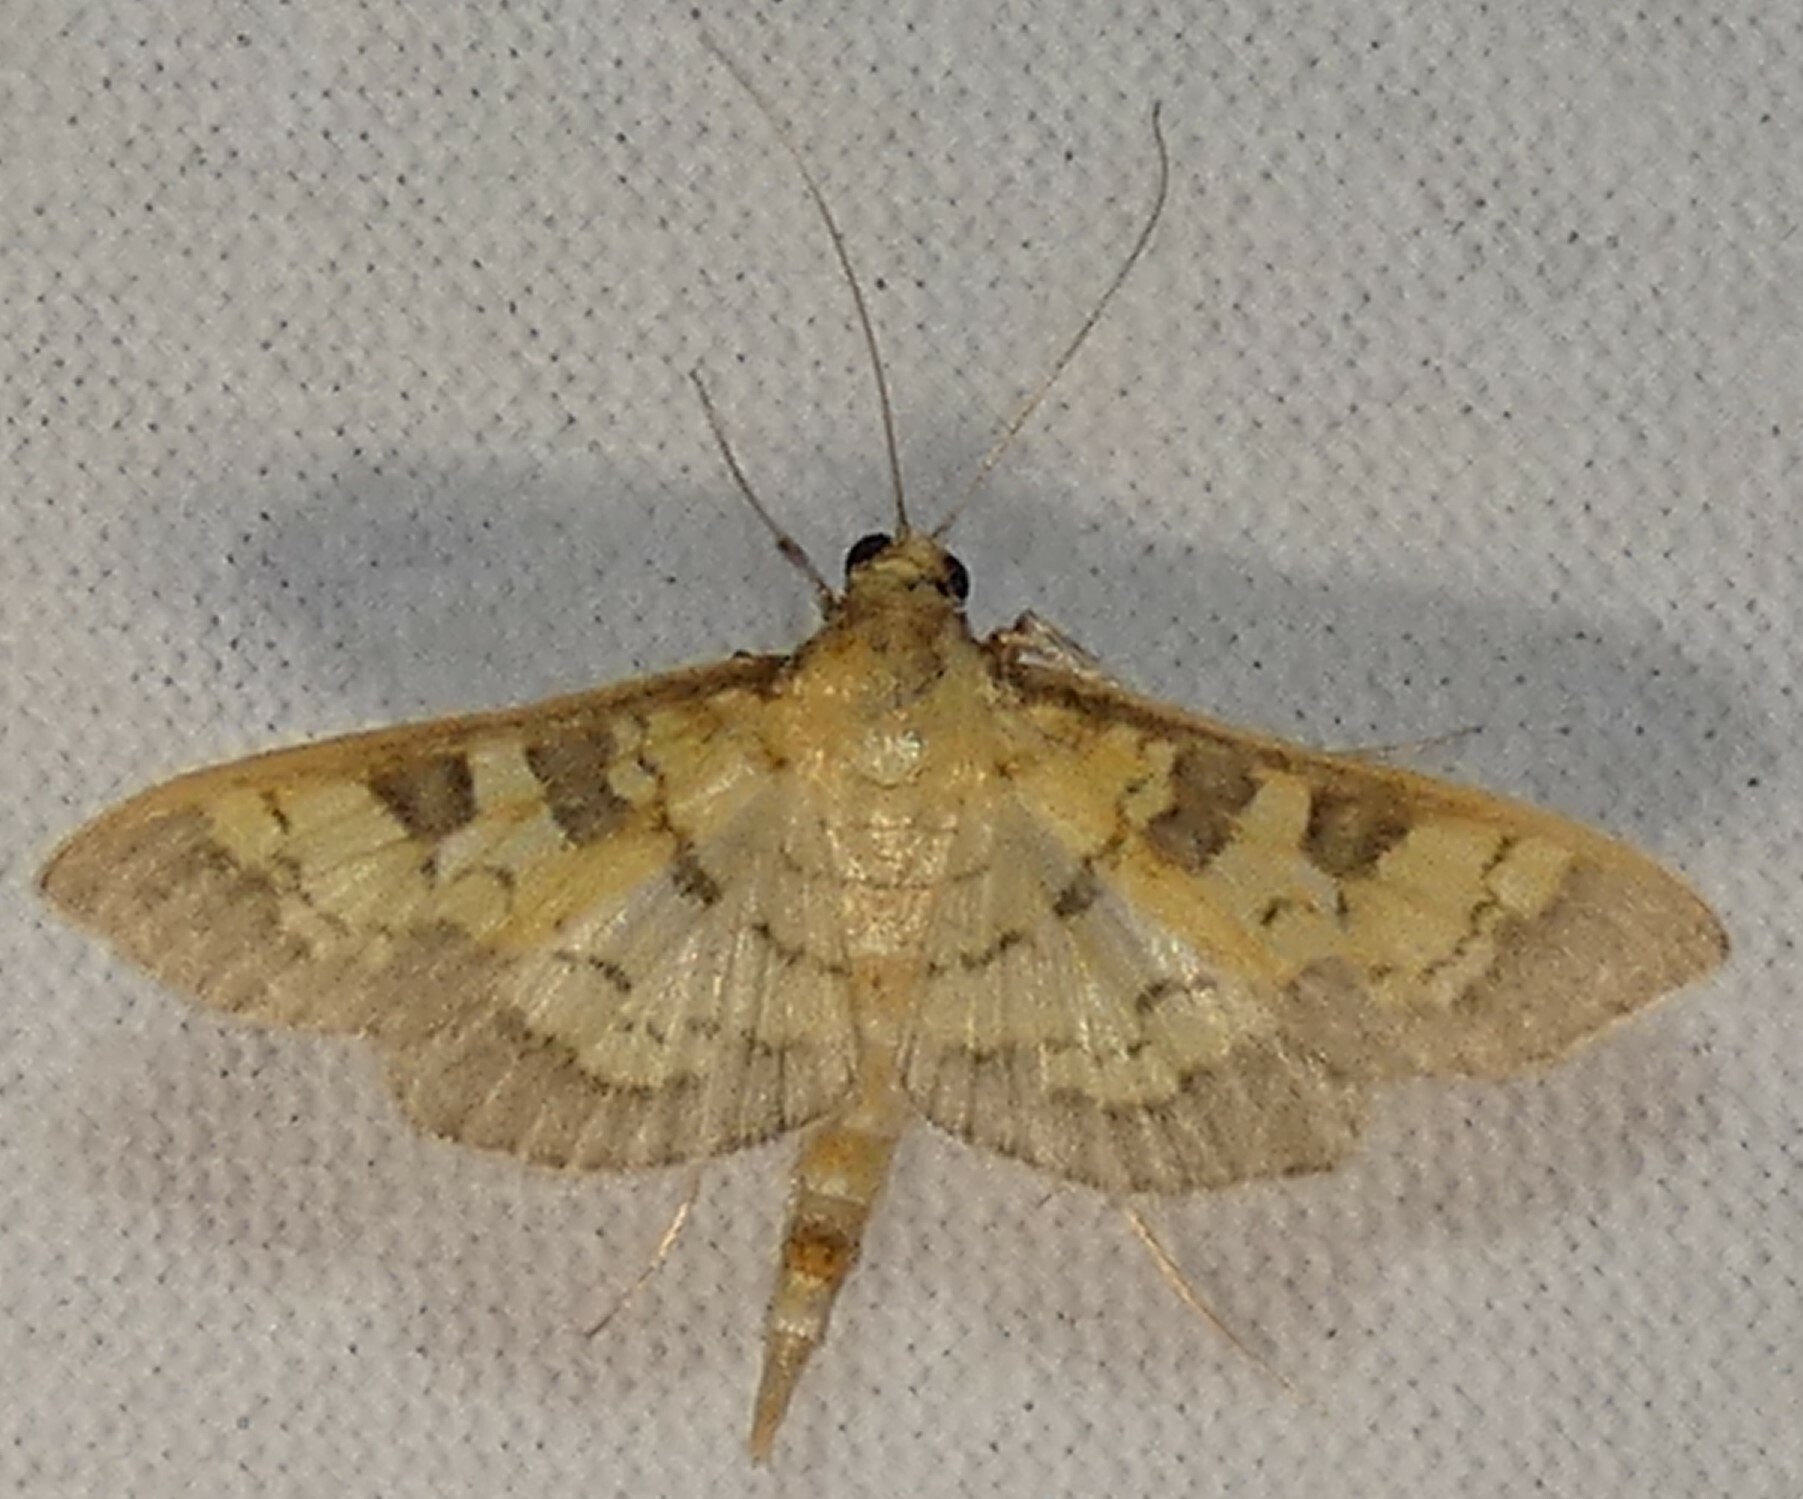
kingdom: Animalia
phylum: Arthropoda
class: Insecta
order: Lepidoptera
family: Crambidae
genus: Cryptographis
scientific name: Cryptographis elealis
